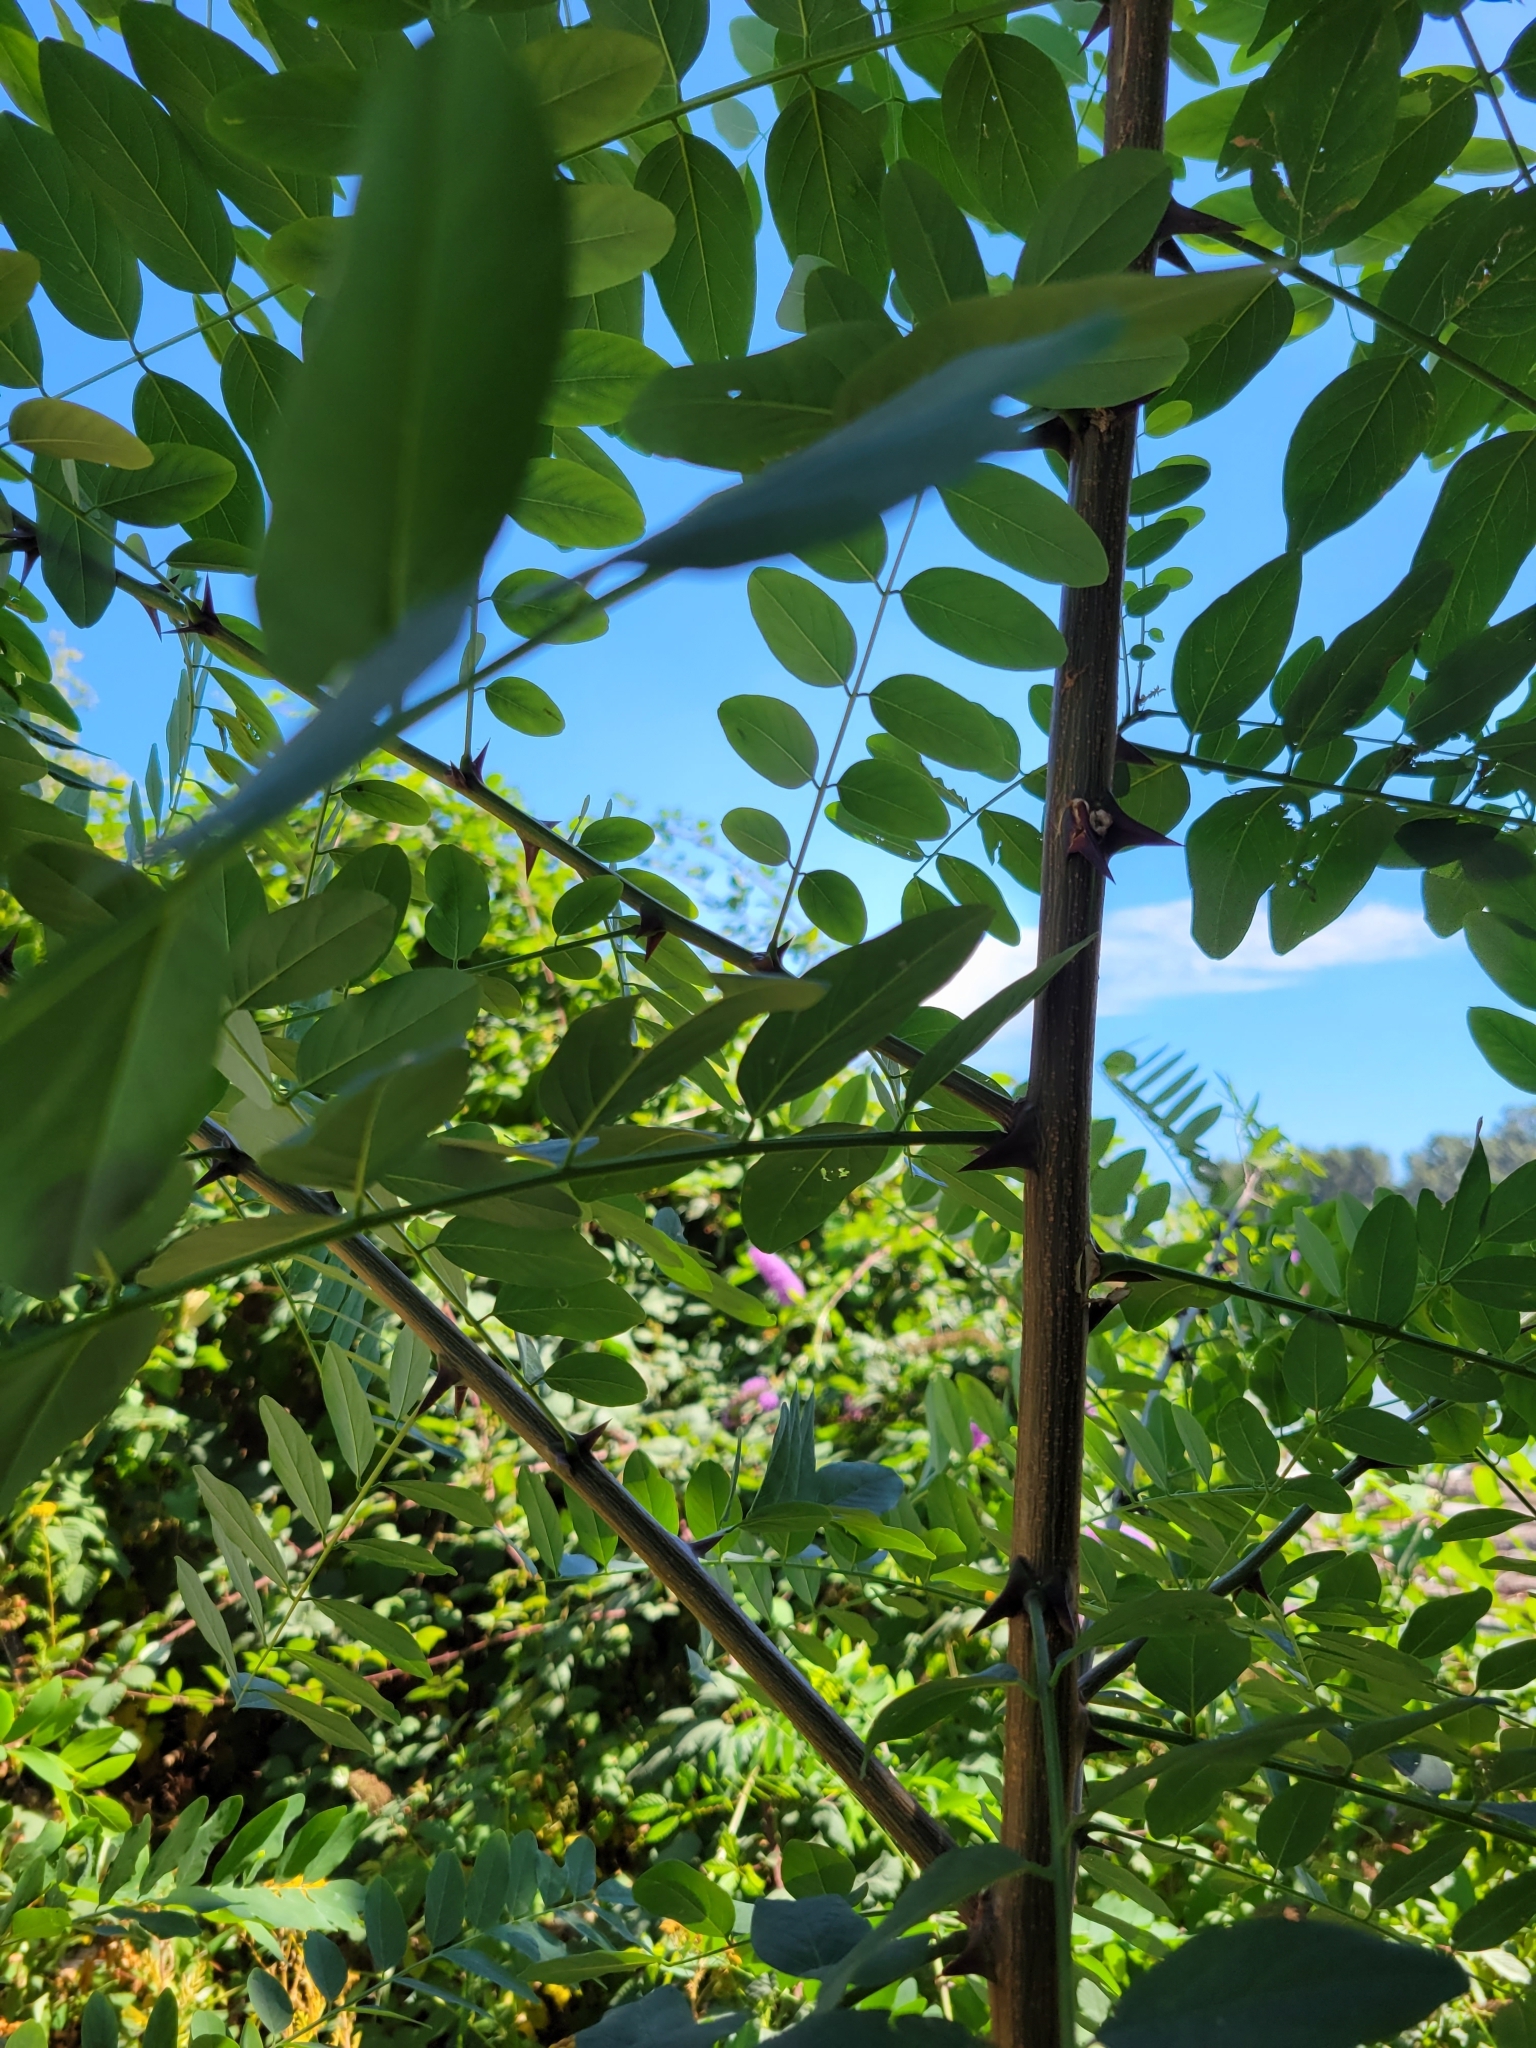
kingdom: Plantae
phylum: Tracheophyta
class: Magnoliopsida
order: Fabales
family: Fabaceae
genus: Robinia
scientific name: Robinia pseudoacacia
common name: Black locust
